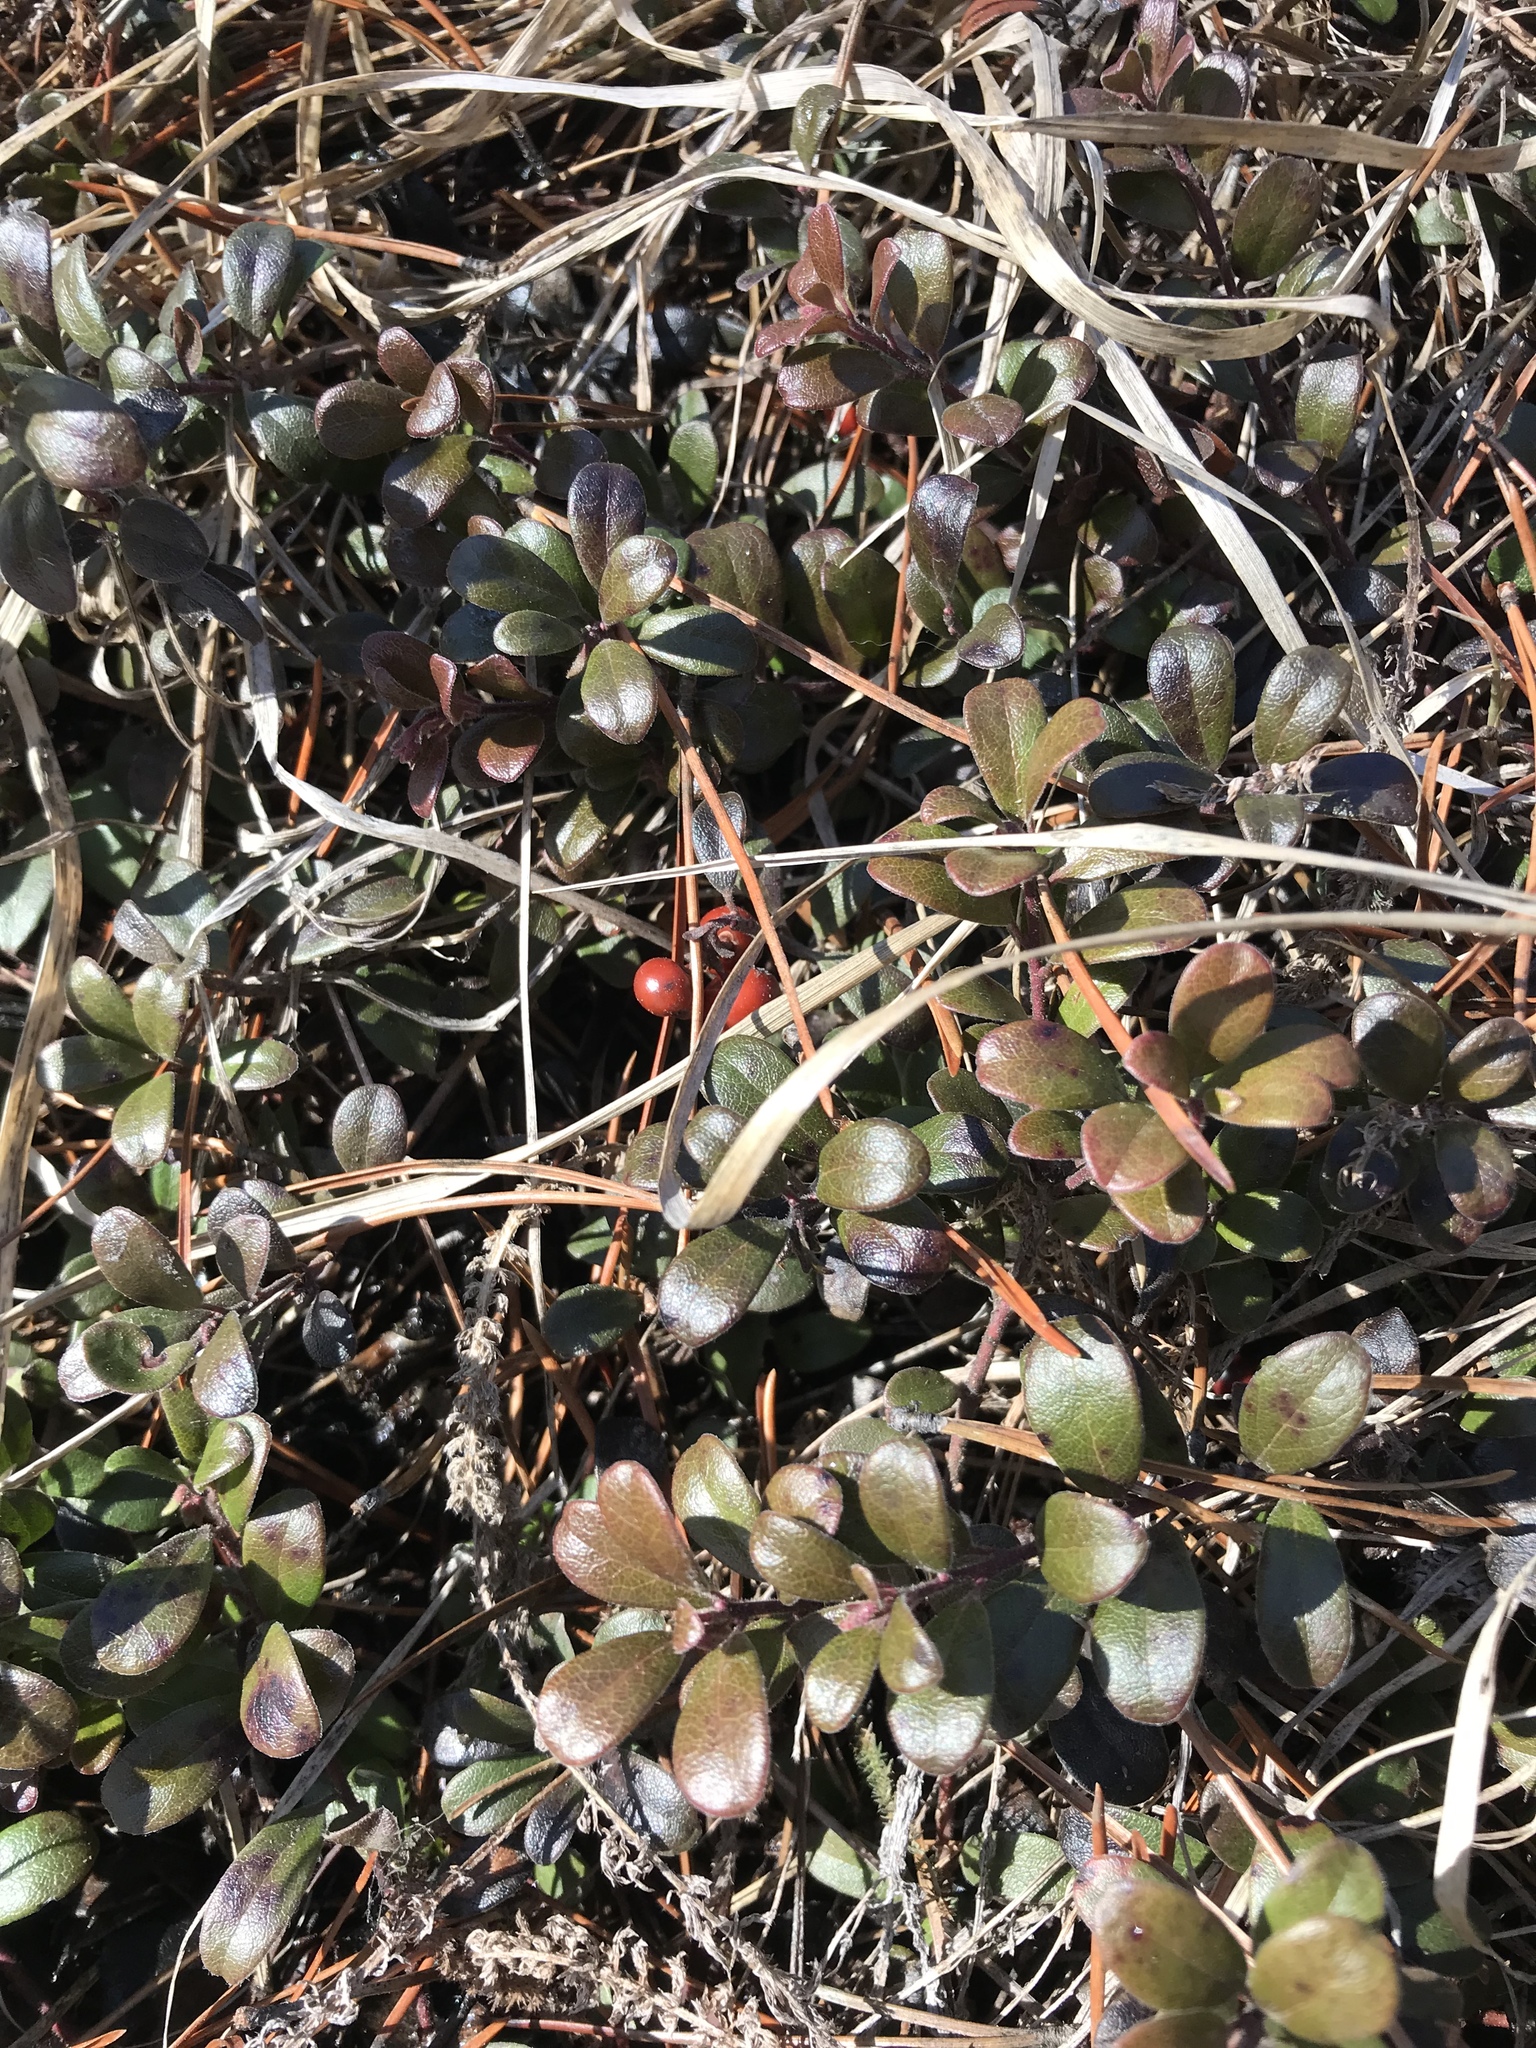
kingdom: Plantae
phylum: Tracheophyta
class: Magnoliopsida
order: Ericales
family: Ericaceae
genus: Arctostaphylos
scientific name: Arctostaphylos uva-ursi
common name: Bearberry
